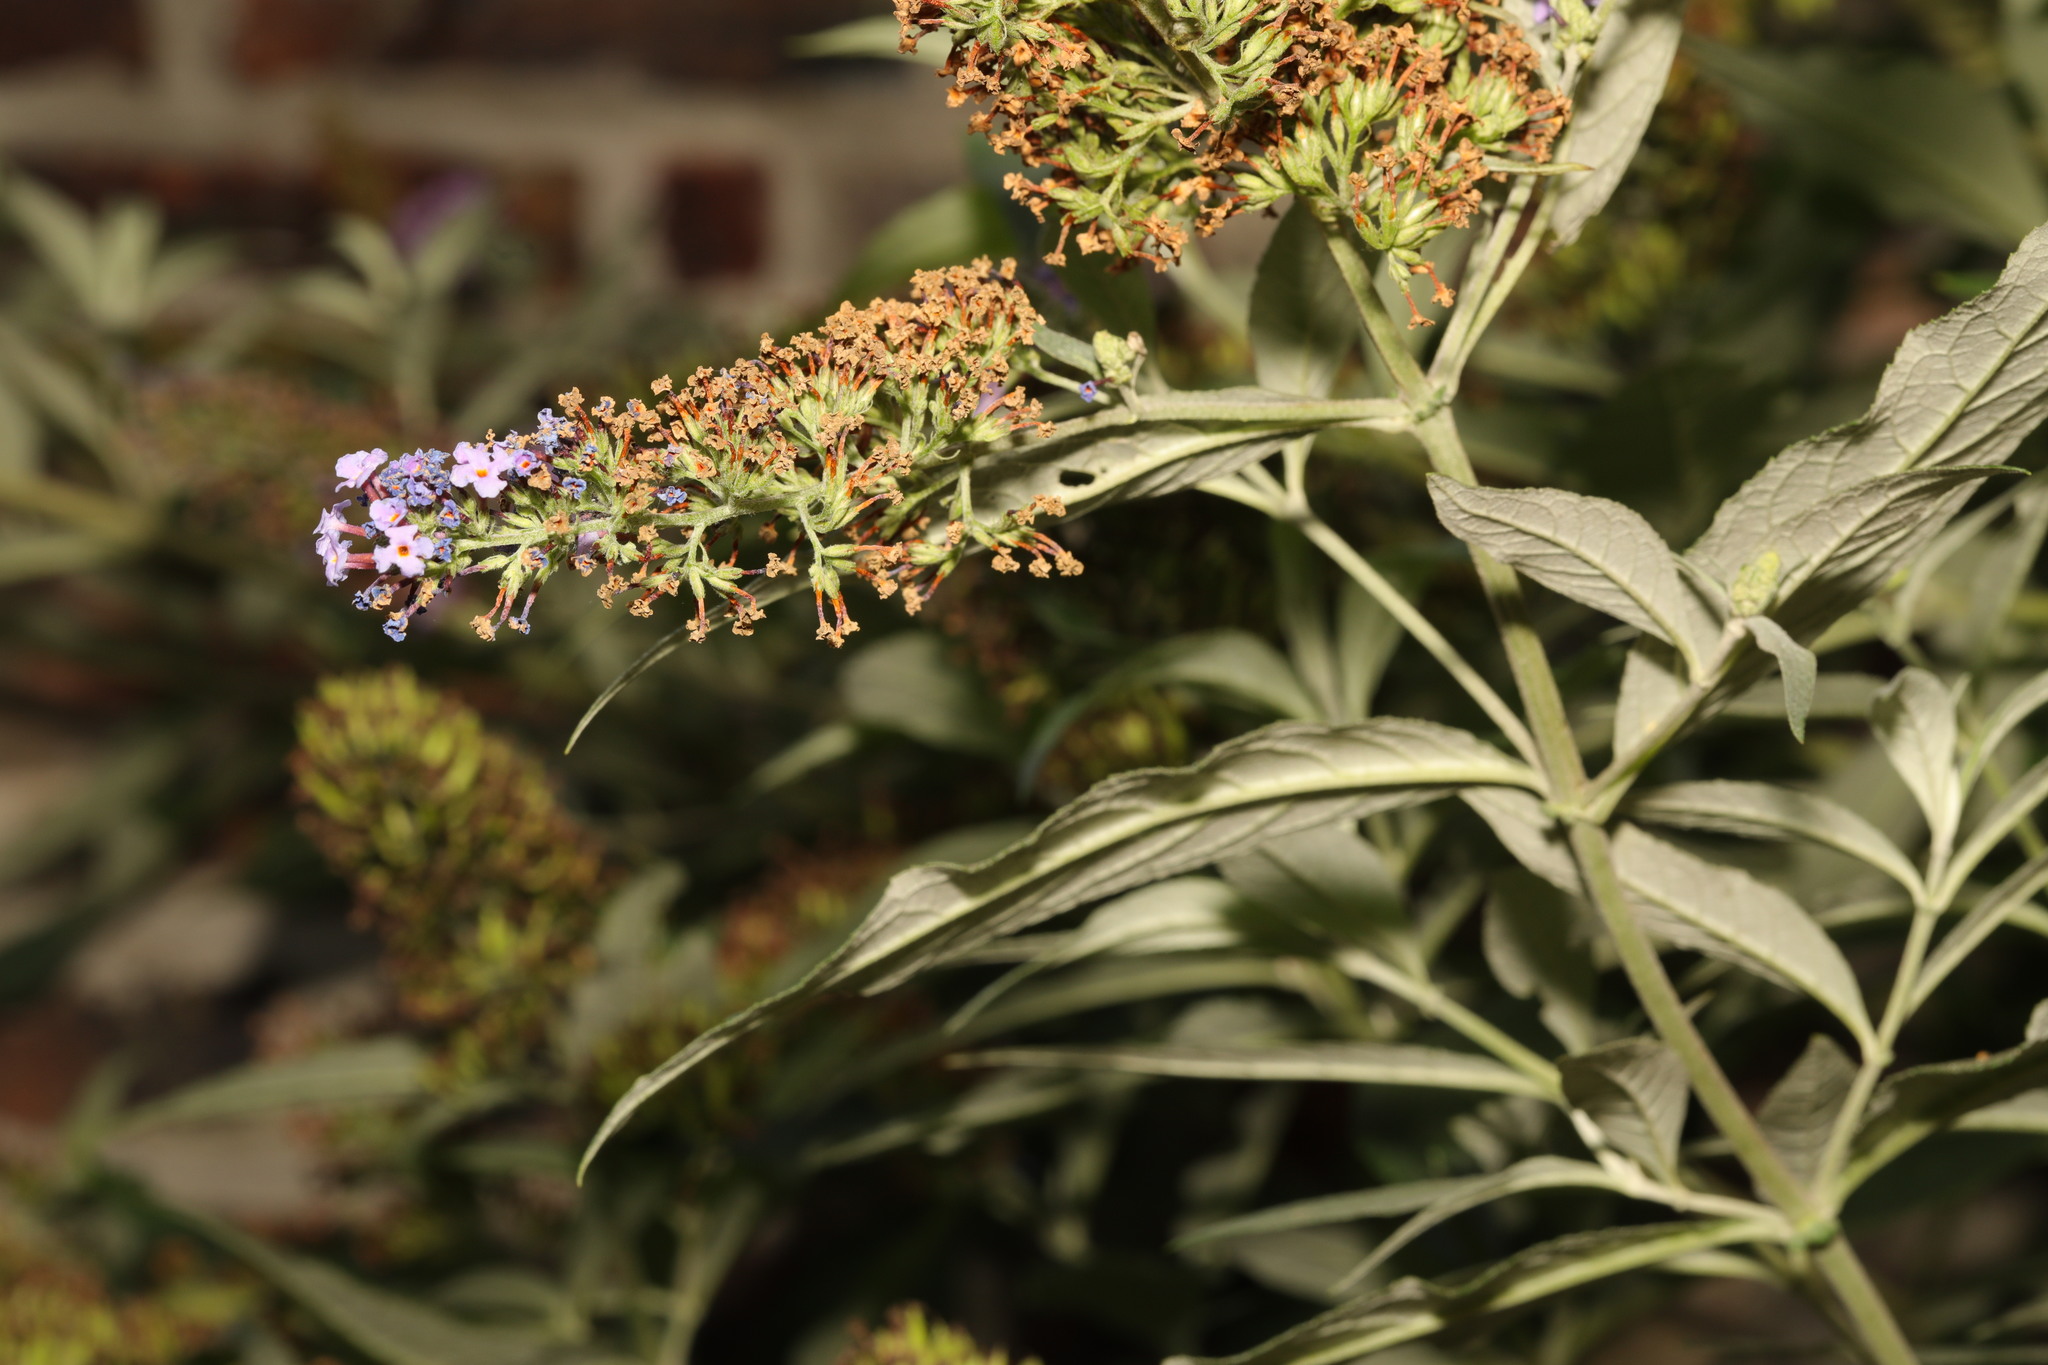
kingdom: Plantae
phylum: Tracheophyta
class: Magnoliopsida
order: Lamiales
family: Scrophulariaceae
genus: Buddleja
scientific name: Buddleja davidii
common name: Butterfly-bush
